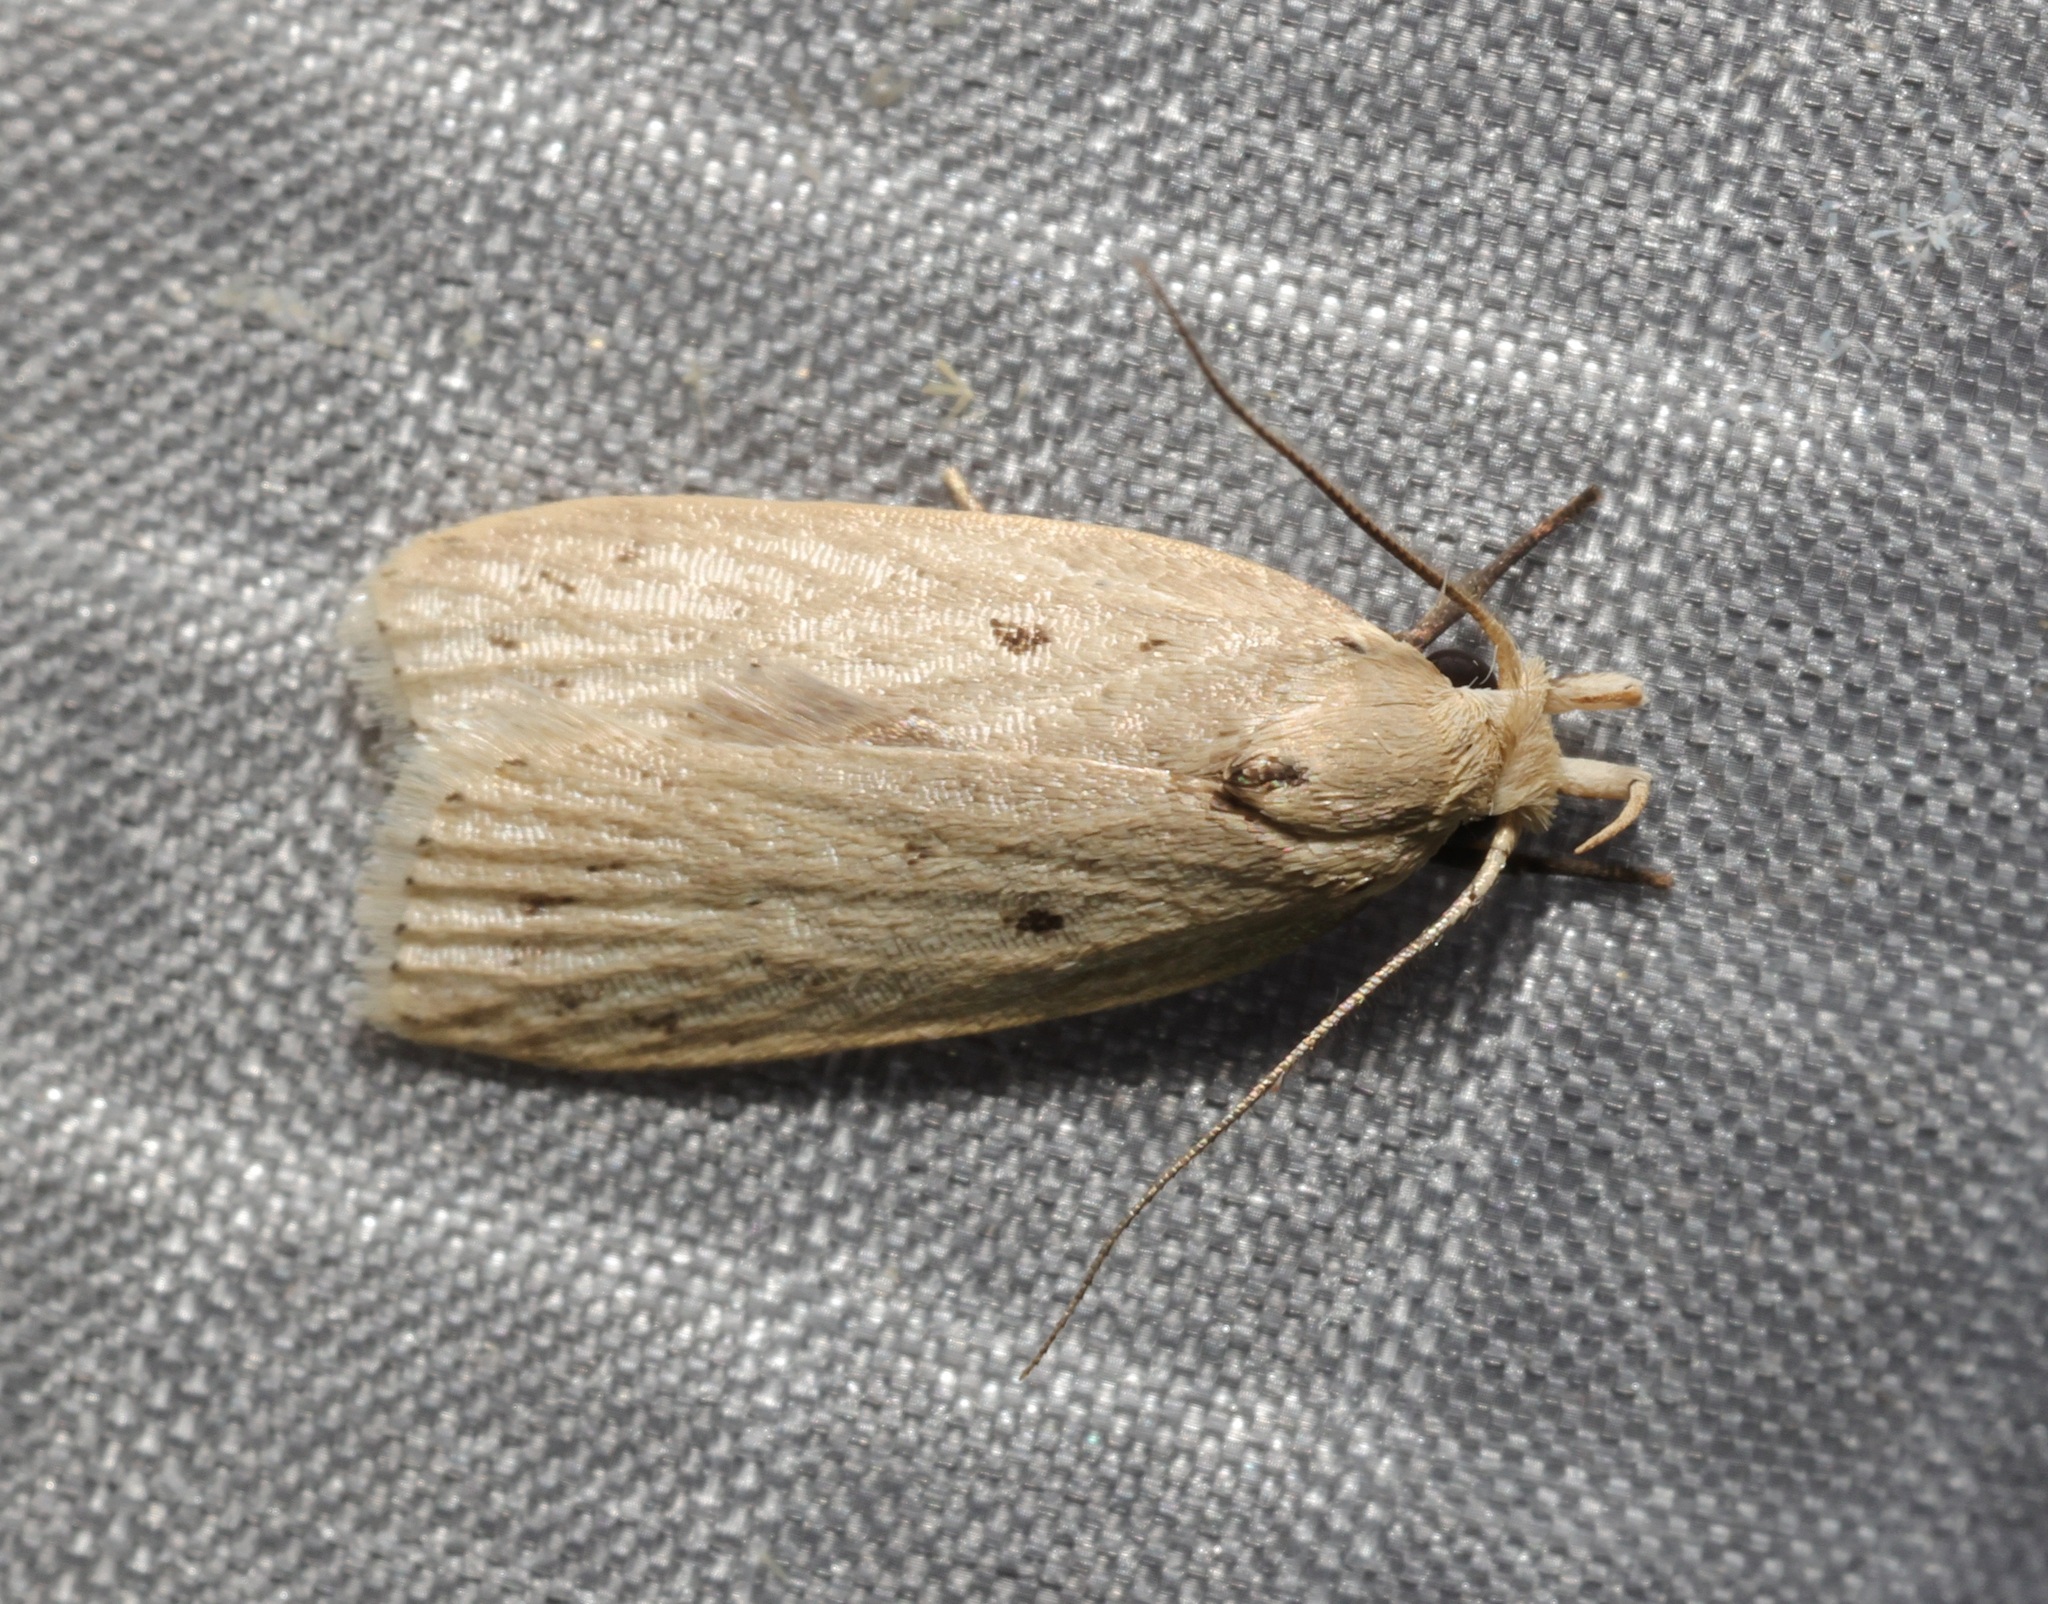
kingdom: Animalia
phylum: Arthropoda
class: Insecta
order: Lepidoptera
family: Peleopodidae
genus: Odites
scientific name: Odites ricinella
